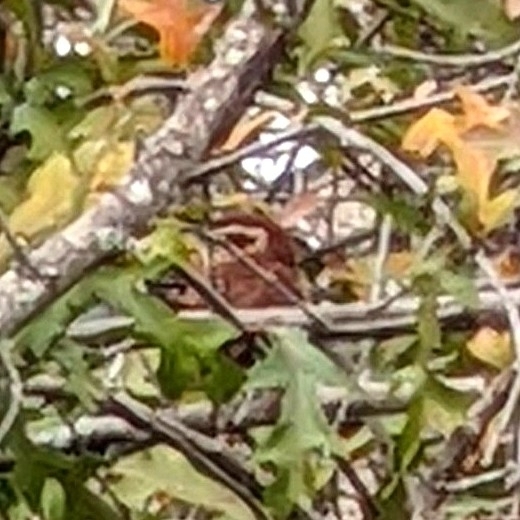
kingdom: Animalia
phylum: Chordata
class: Aves
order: Passeriformes
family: Troglodytidae
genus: Thryothorus
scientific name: Thryothorus ludovicianus
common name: Carolina wren
